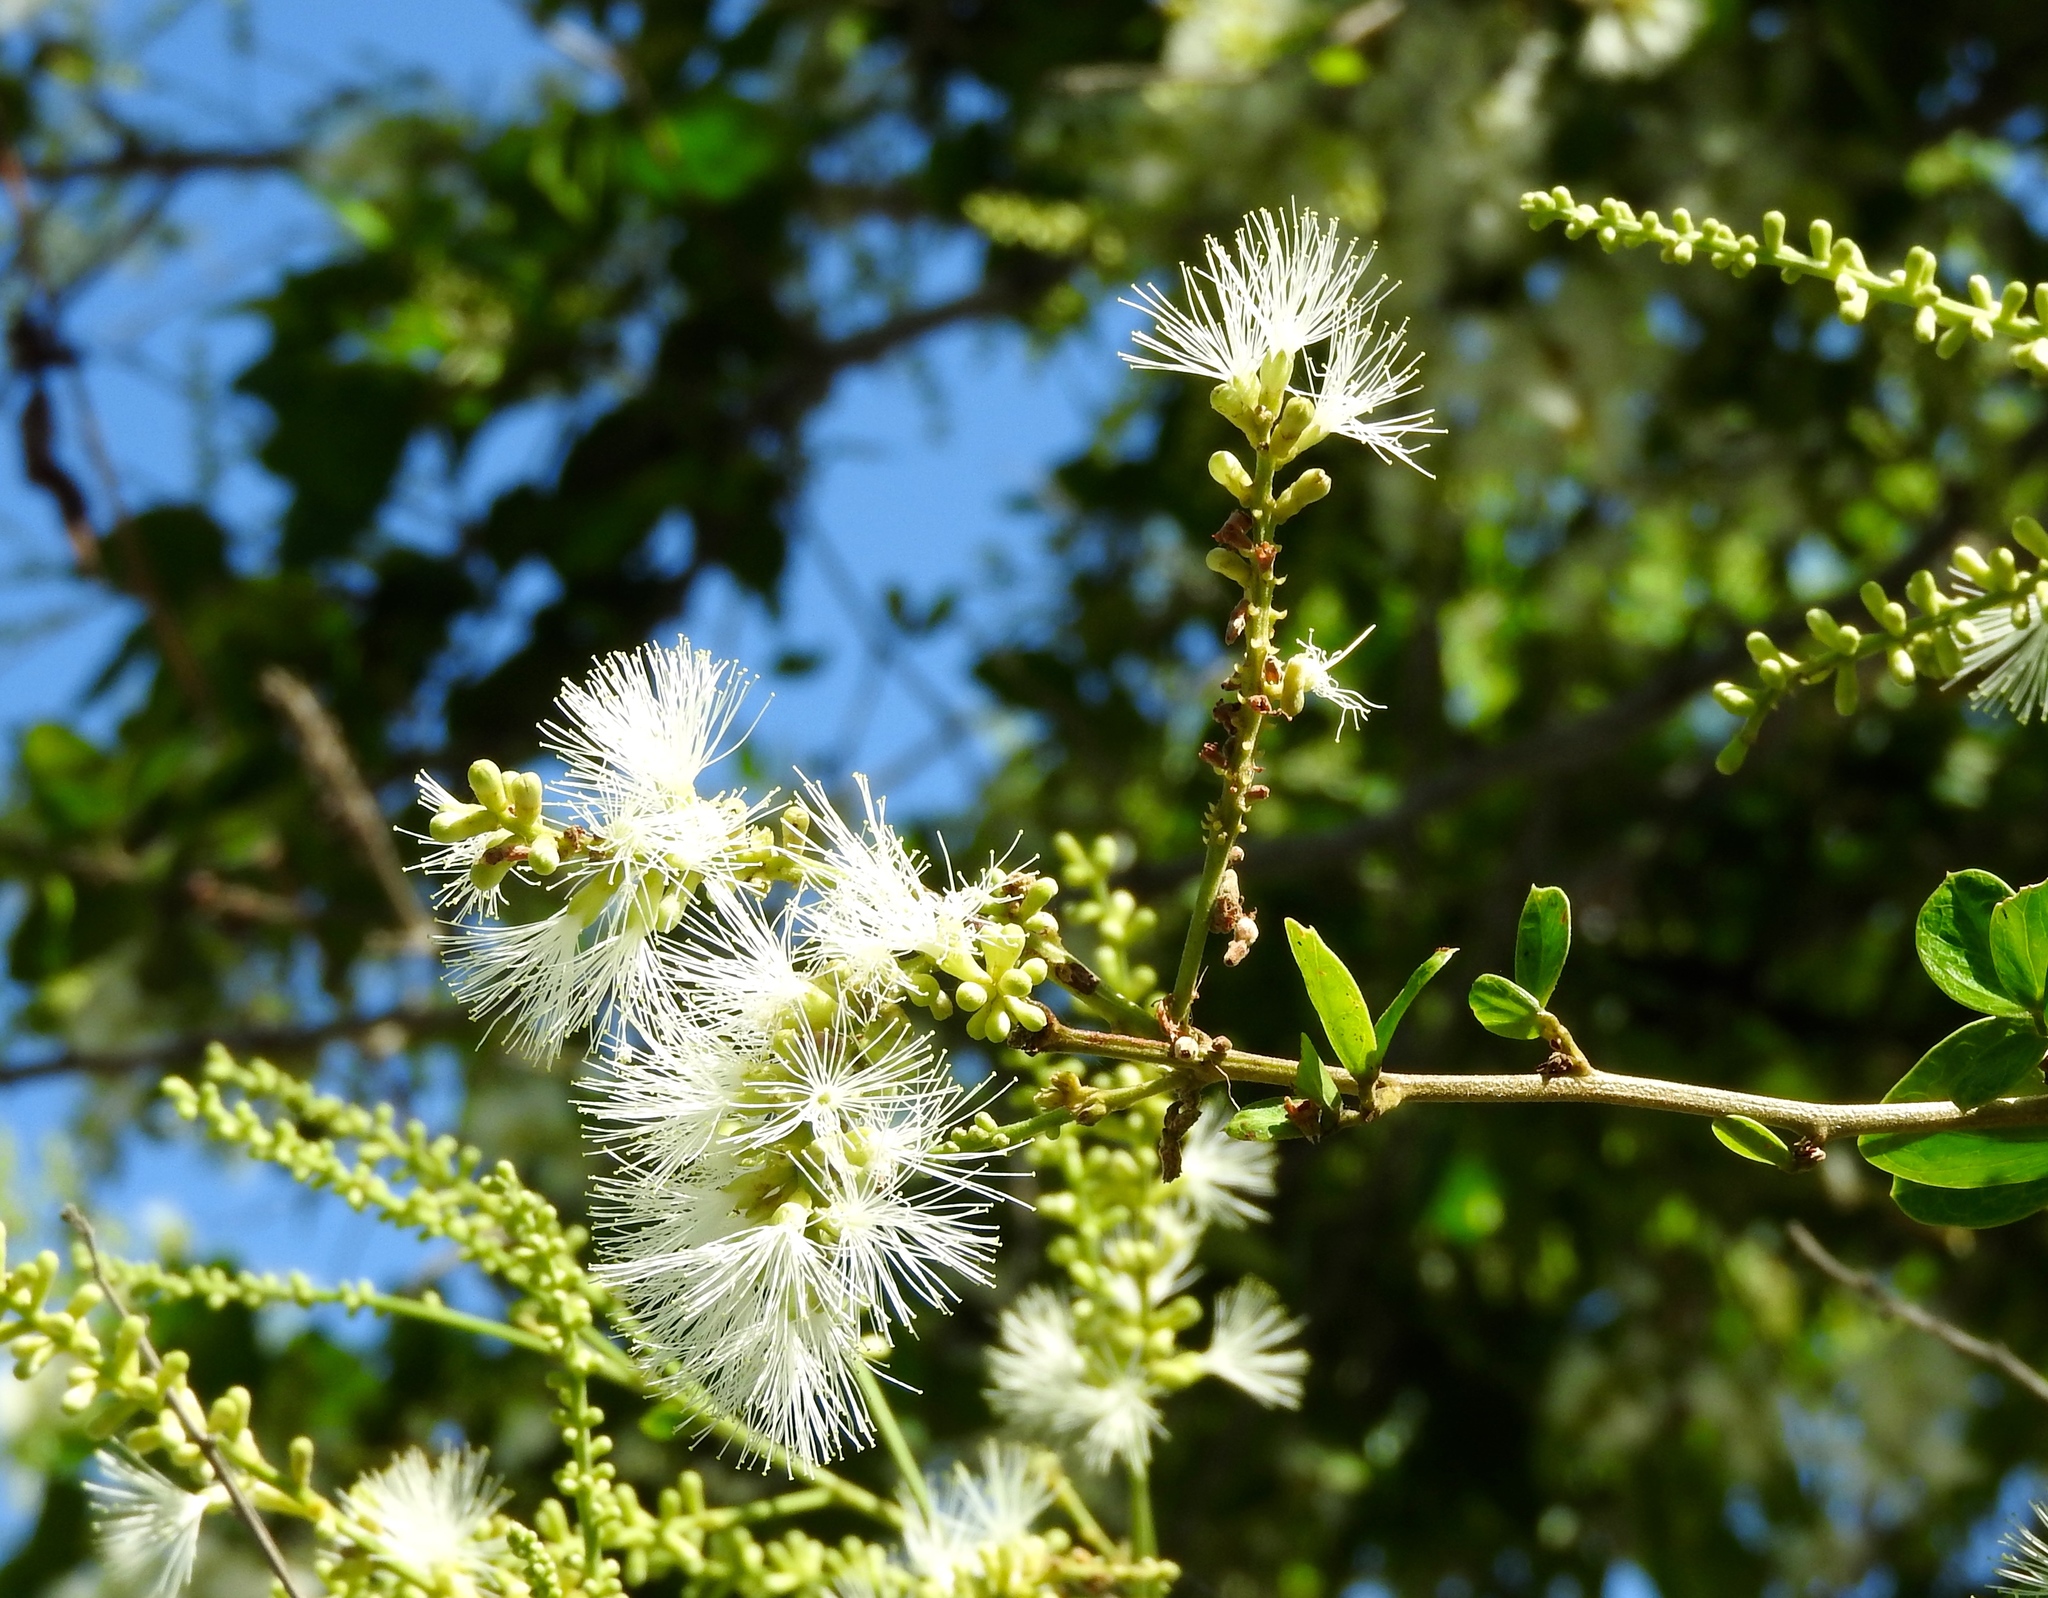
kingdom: Plantae
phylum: Tracheophyta
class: Magnoliopsida
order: Fabales
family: Fabaceae
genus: Pithecellobium
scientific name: Pithecellobium lanceolatum
